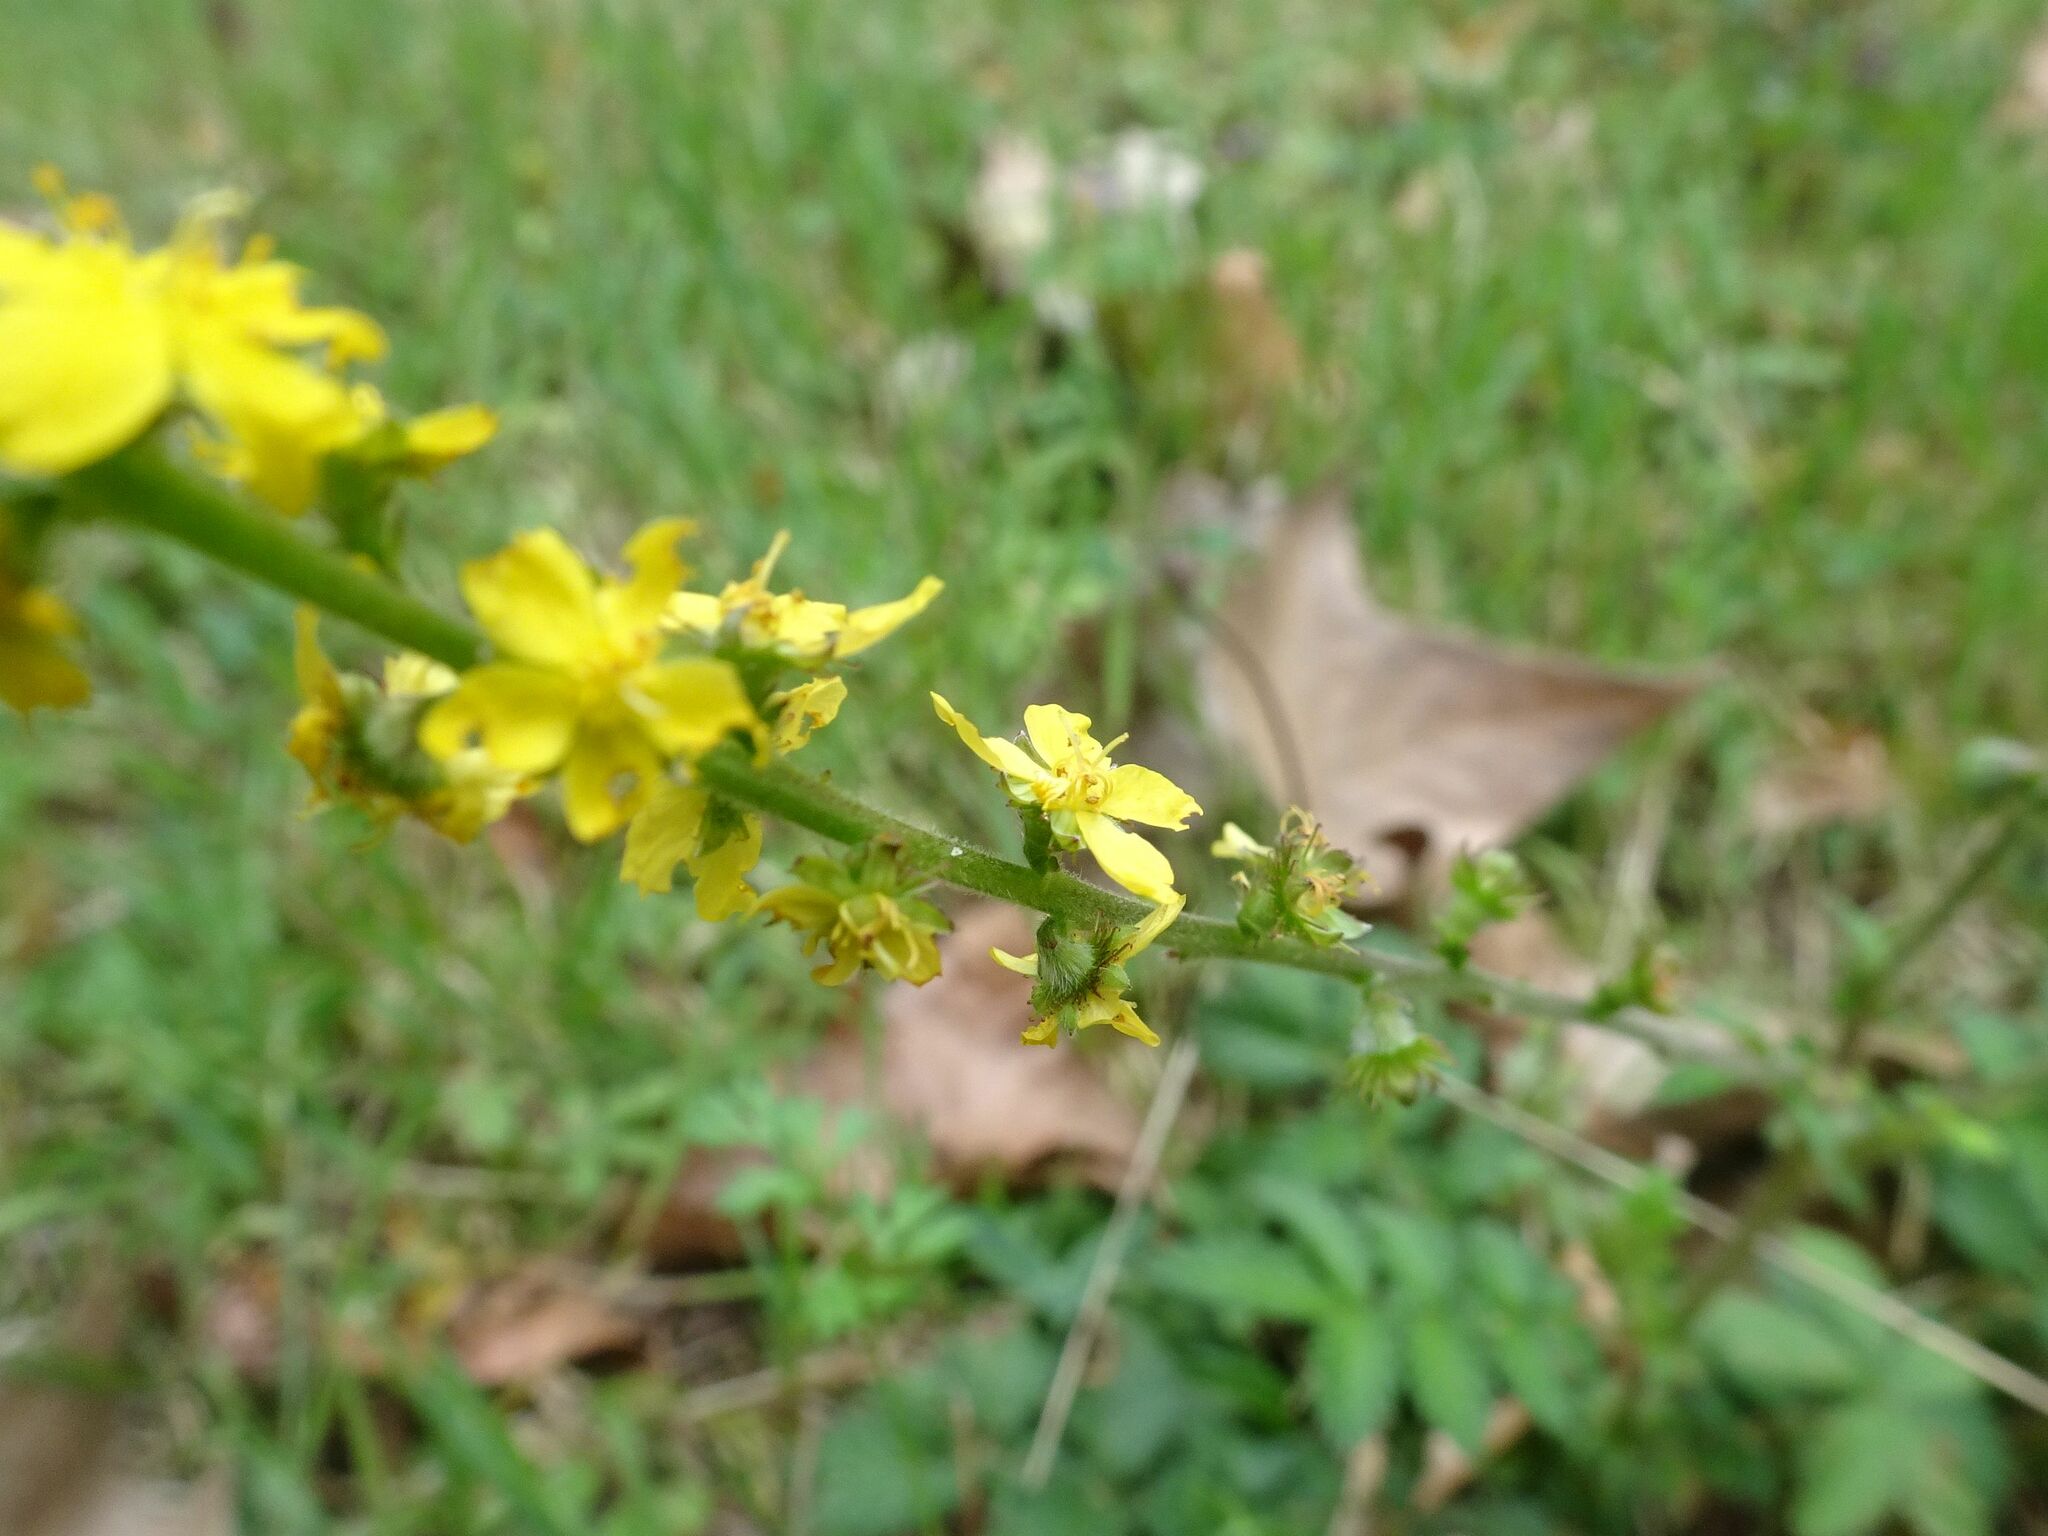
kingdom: Plantae
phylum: Tracheophyta
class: Magnoliopsida
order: Rosales
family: Rosaceae
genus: Agrimonia
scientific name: Agrimonia eupatoria
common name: Agrimony
